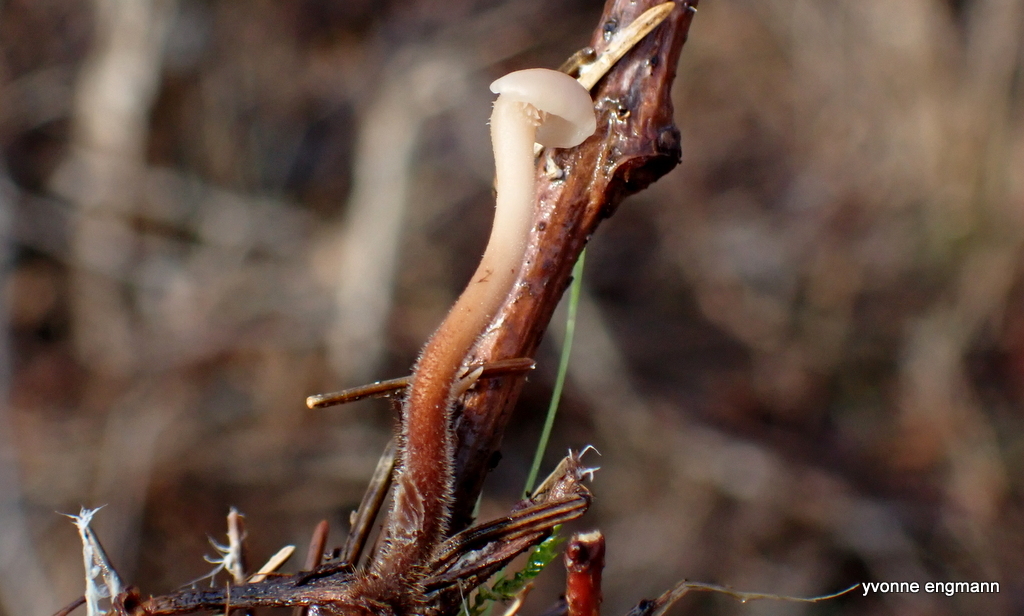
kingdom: Fungi
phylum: Basidiomycota
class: Agaricomycetes
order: Russulales
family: Auriscalpiaceae
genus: Auriscalpium
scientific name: Auriscalpium vulgare
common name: Earpick fungus
